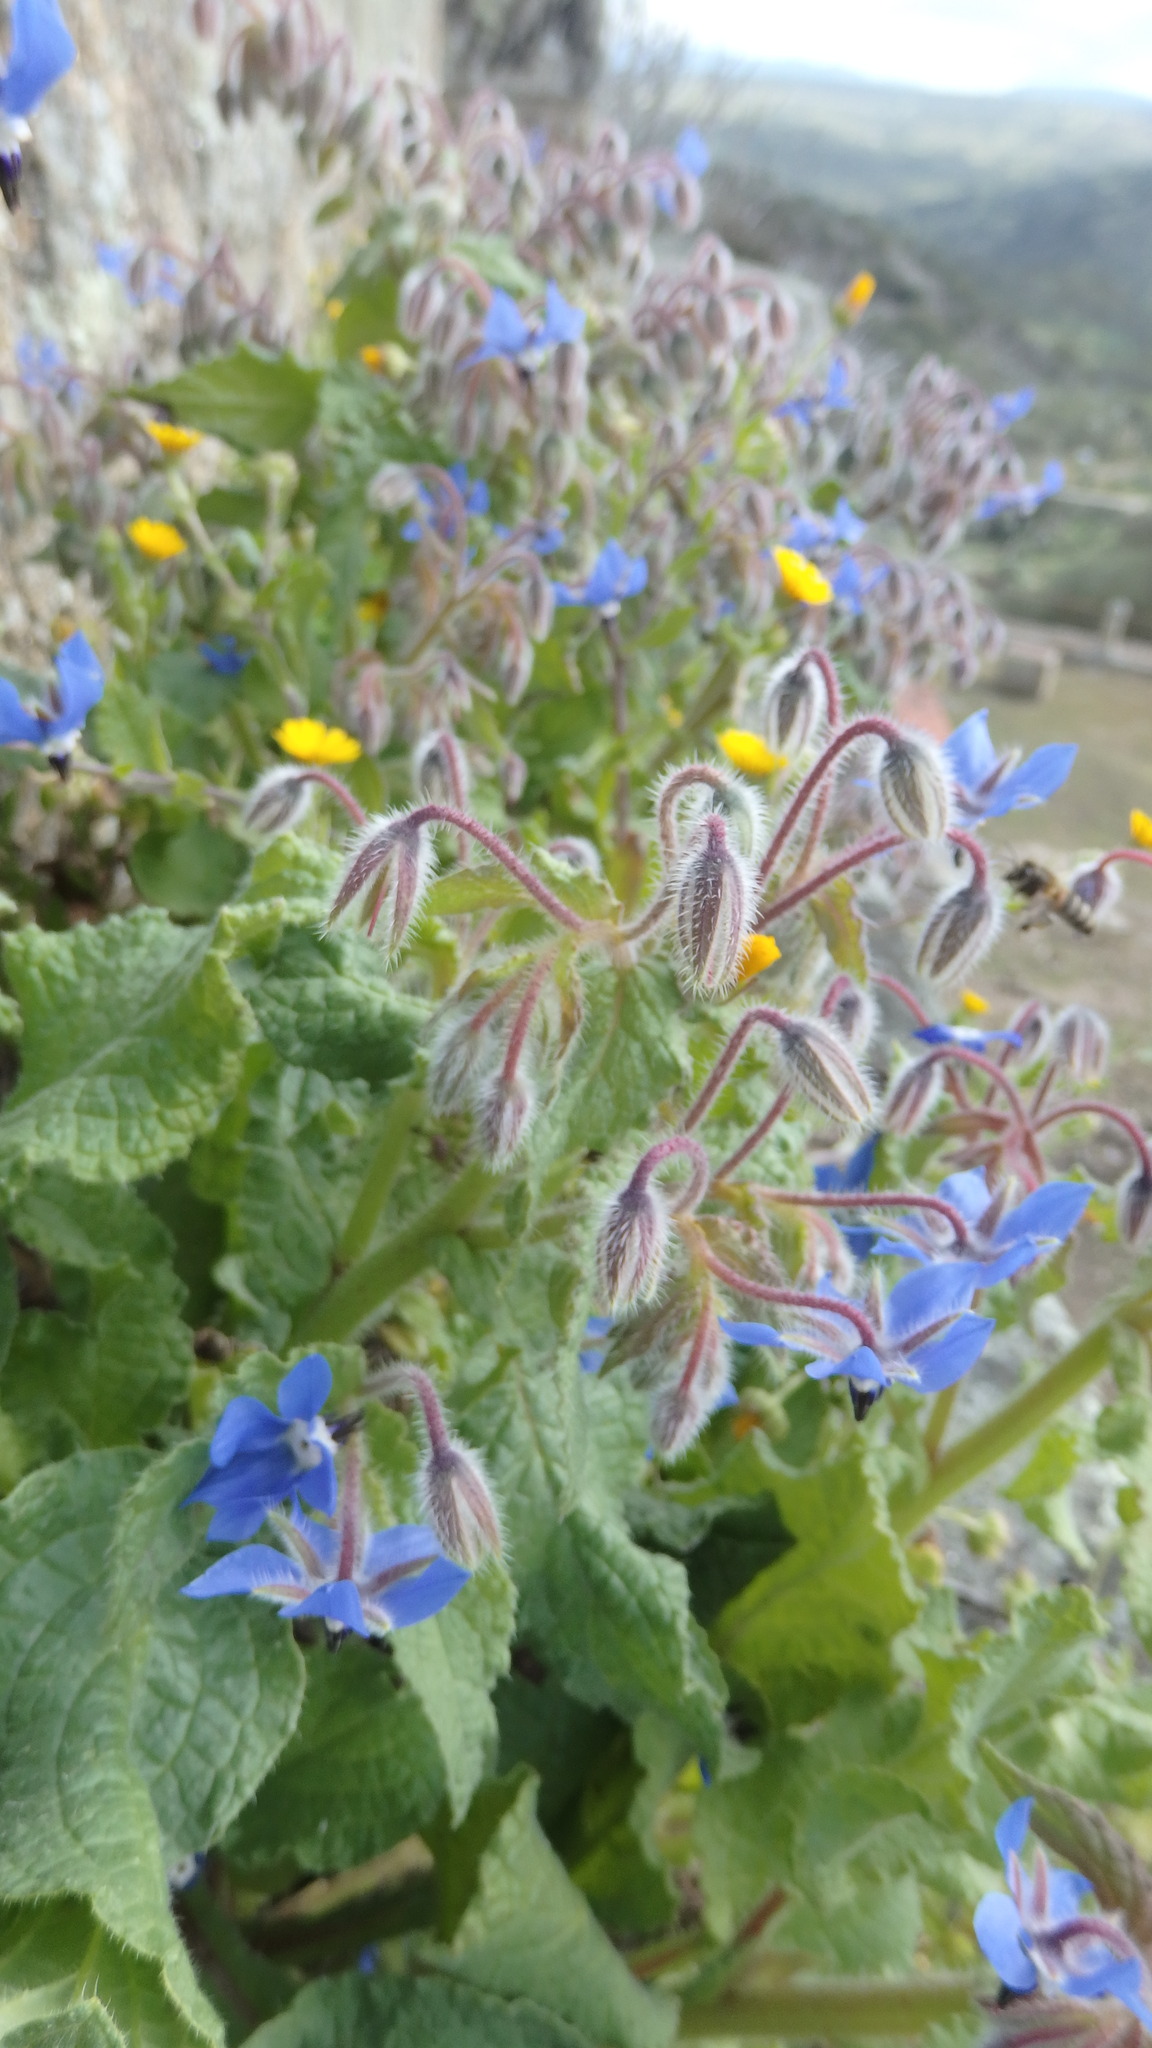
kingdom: Plantae
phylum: Tracheophyta
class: Magnoliopsida
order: Boraginales
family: Boraginaceae
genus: Borago
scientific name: Borago officinalis
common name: Borage
